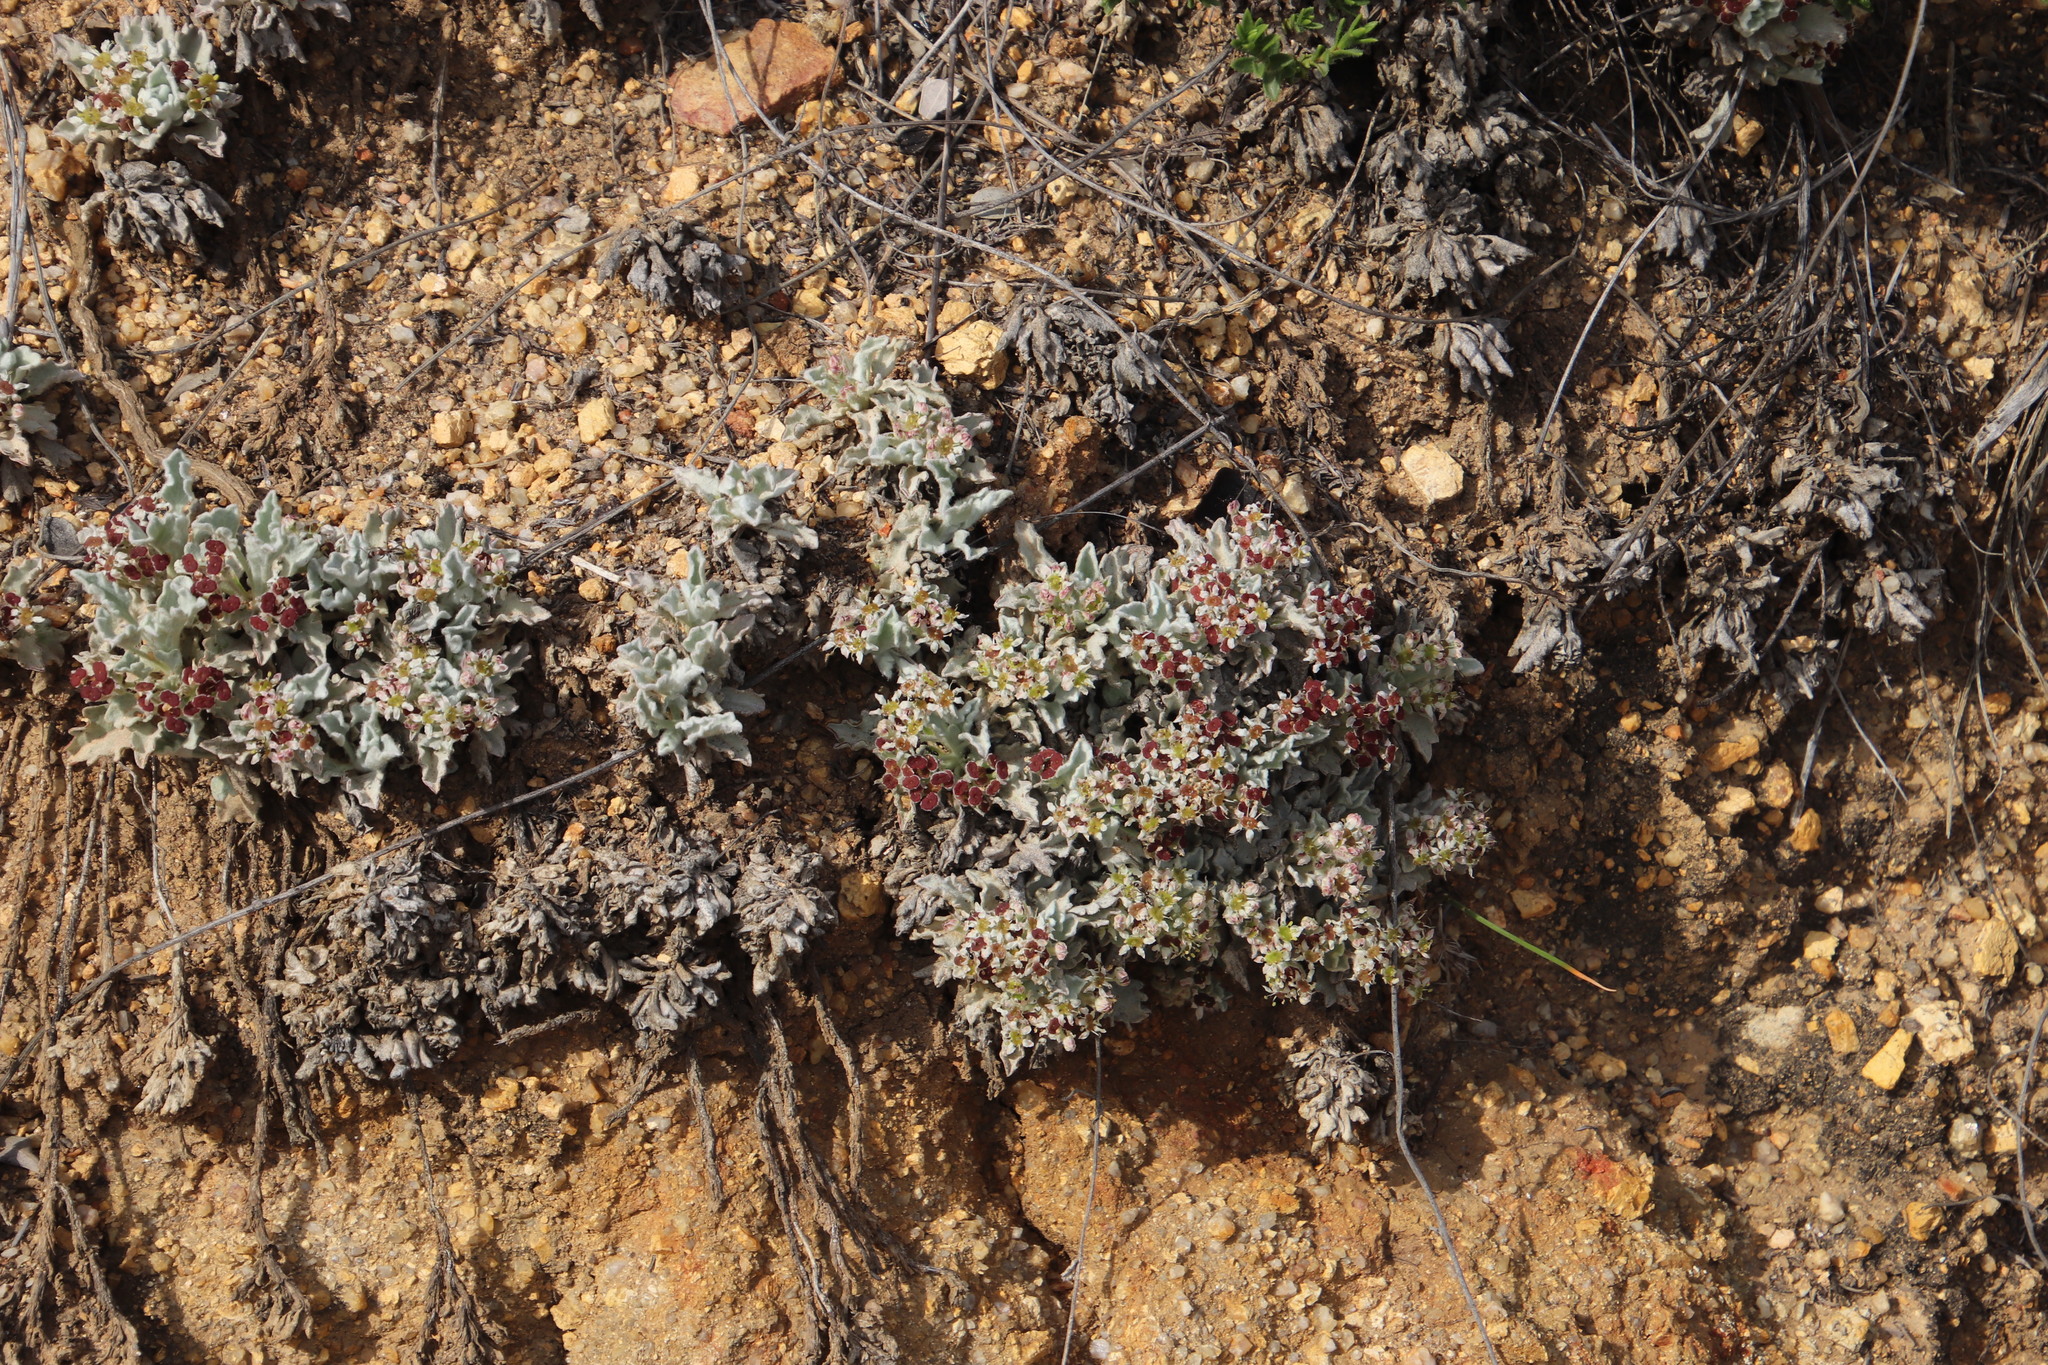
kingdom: Plantae
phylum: Tracheophyta
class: Magnoliopsida
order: Apiales
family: Apiaceae
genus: Centella
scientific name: Centella capensis
